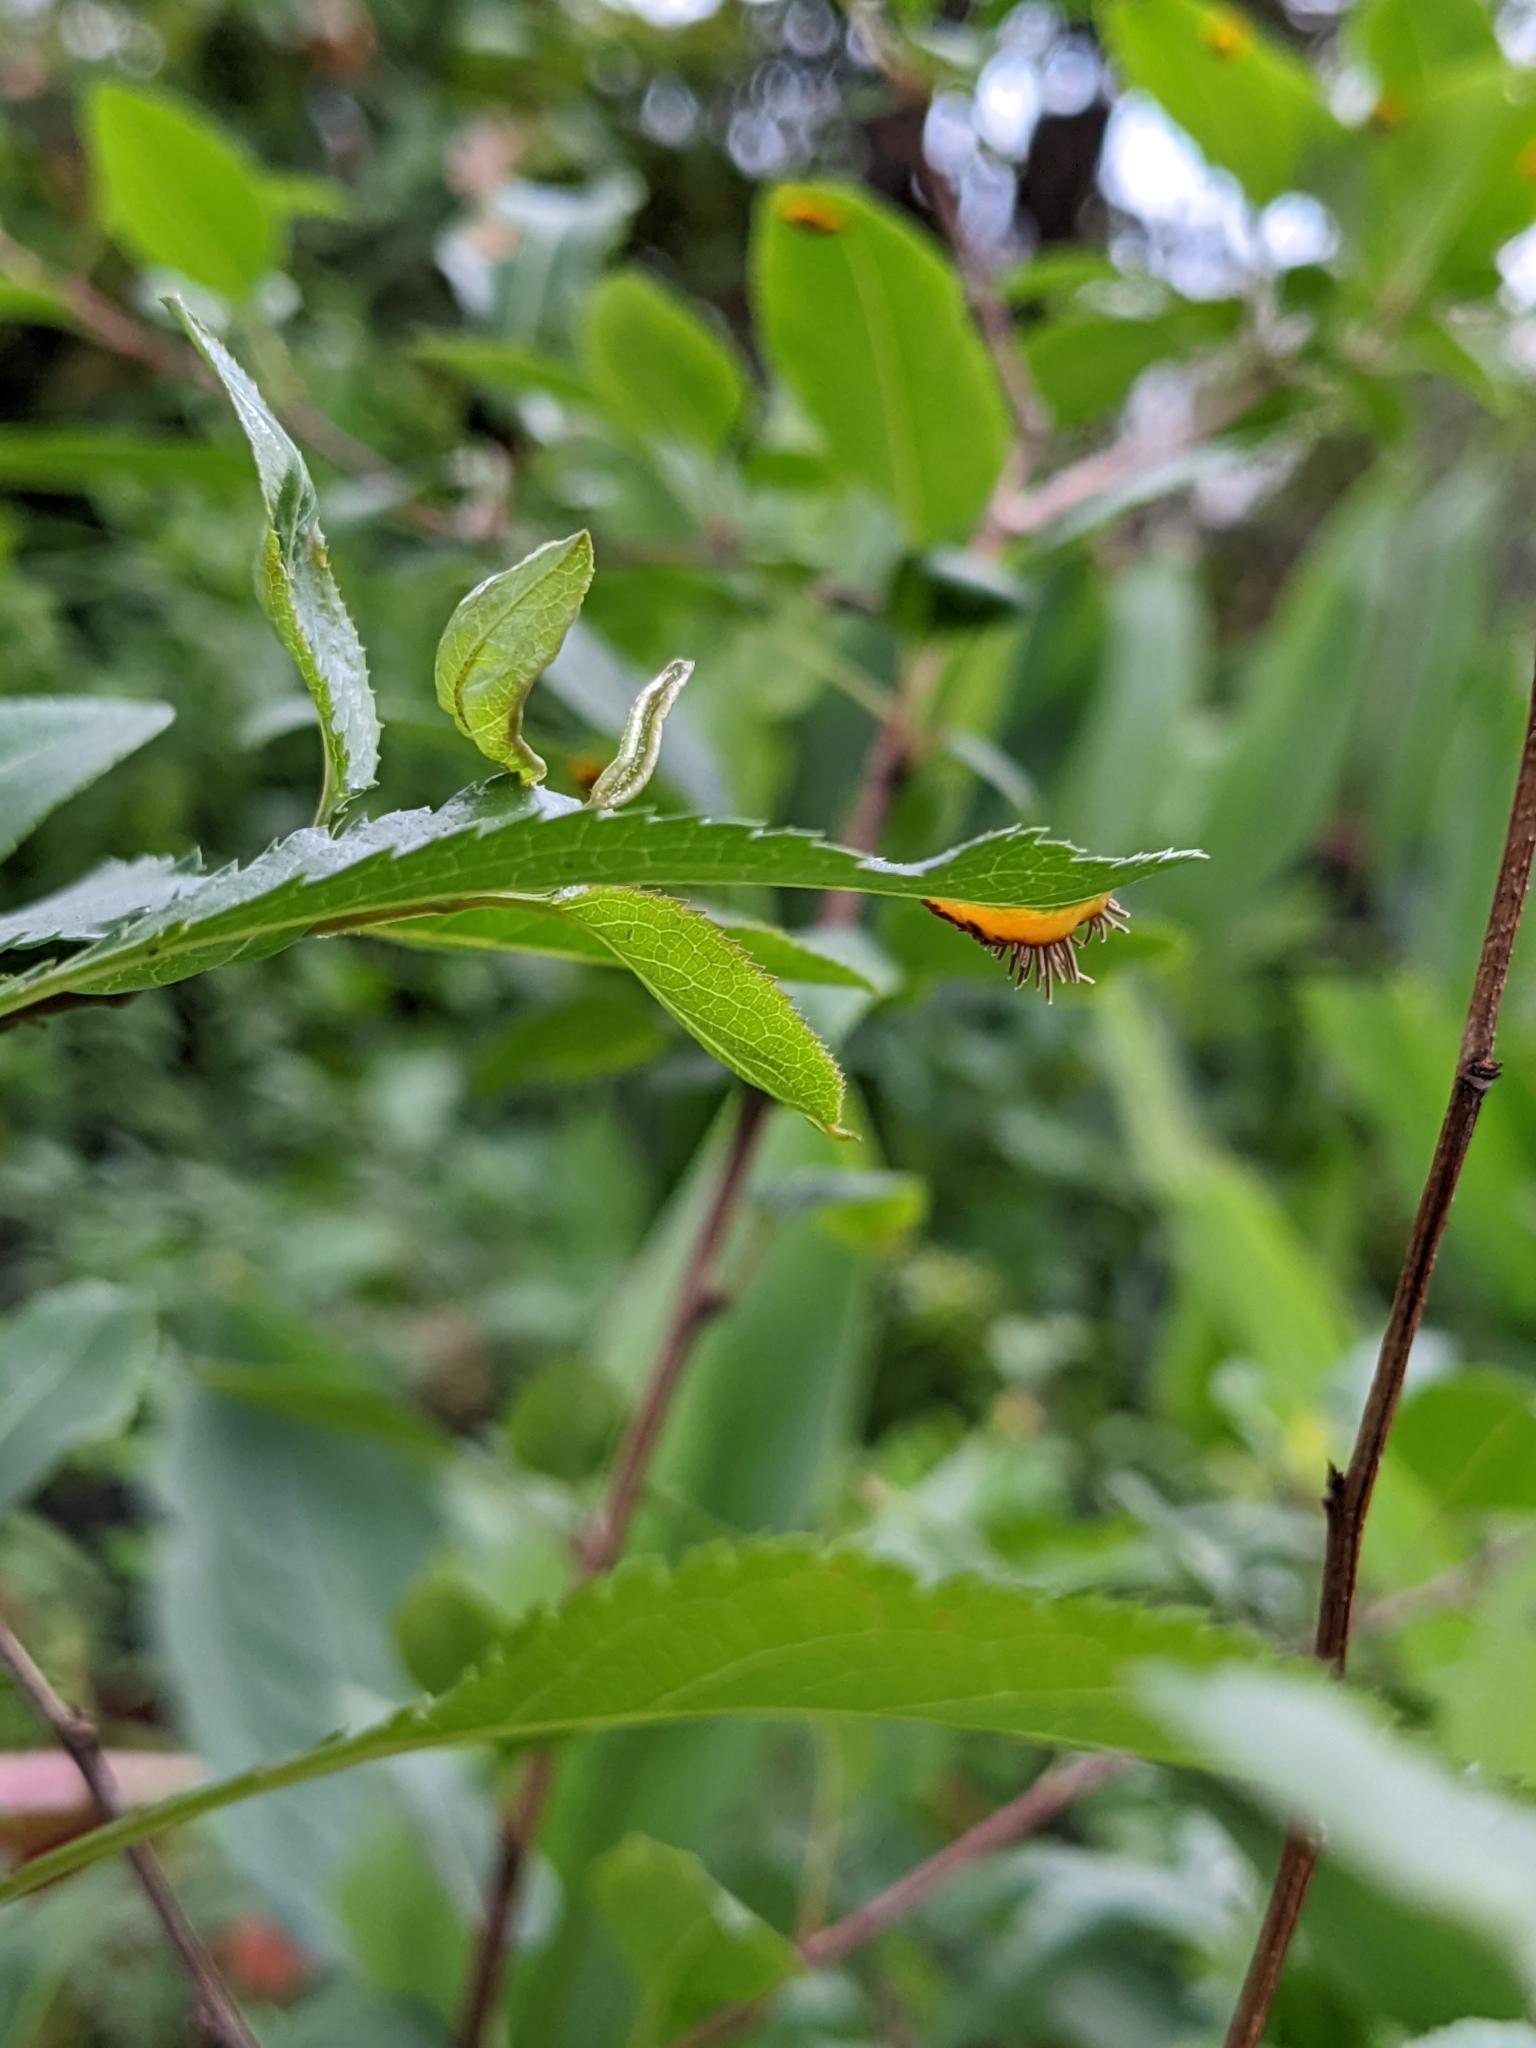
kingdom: Fungi
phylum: Basidiomycota
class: Pucciniomycetes
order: Pucciniales
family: Gymnosporangiaceae
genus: Gymnosporangium
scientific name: Gymnosporangium asiaticum
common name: Japanese pear rust
